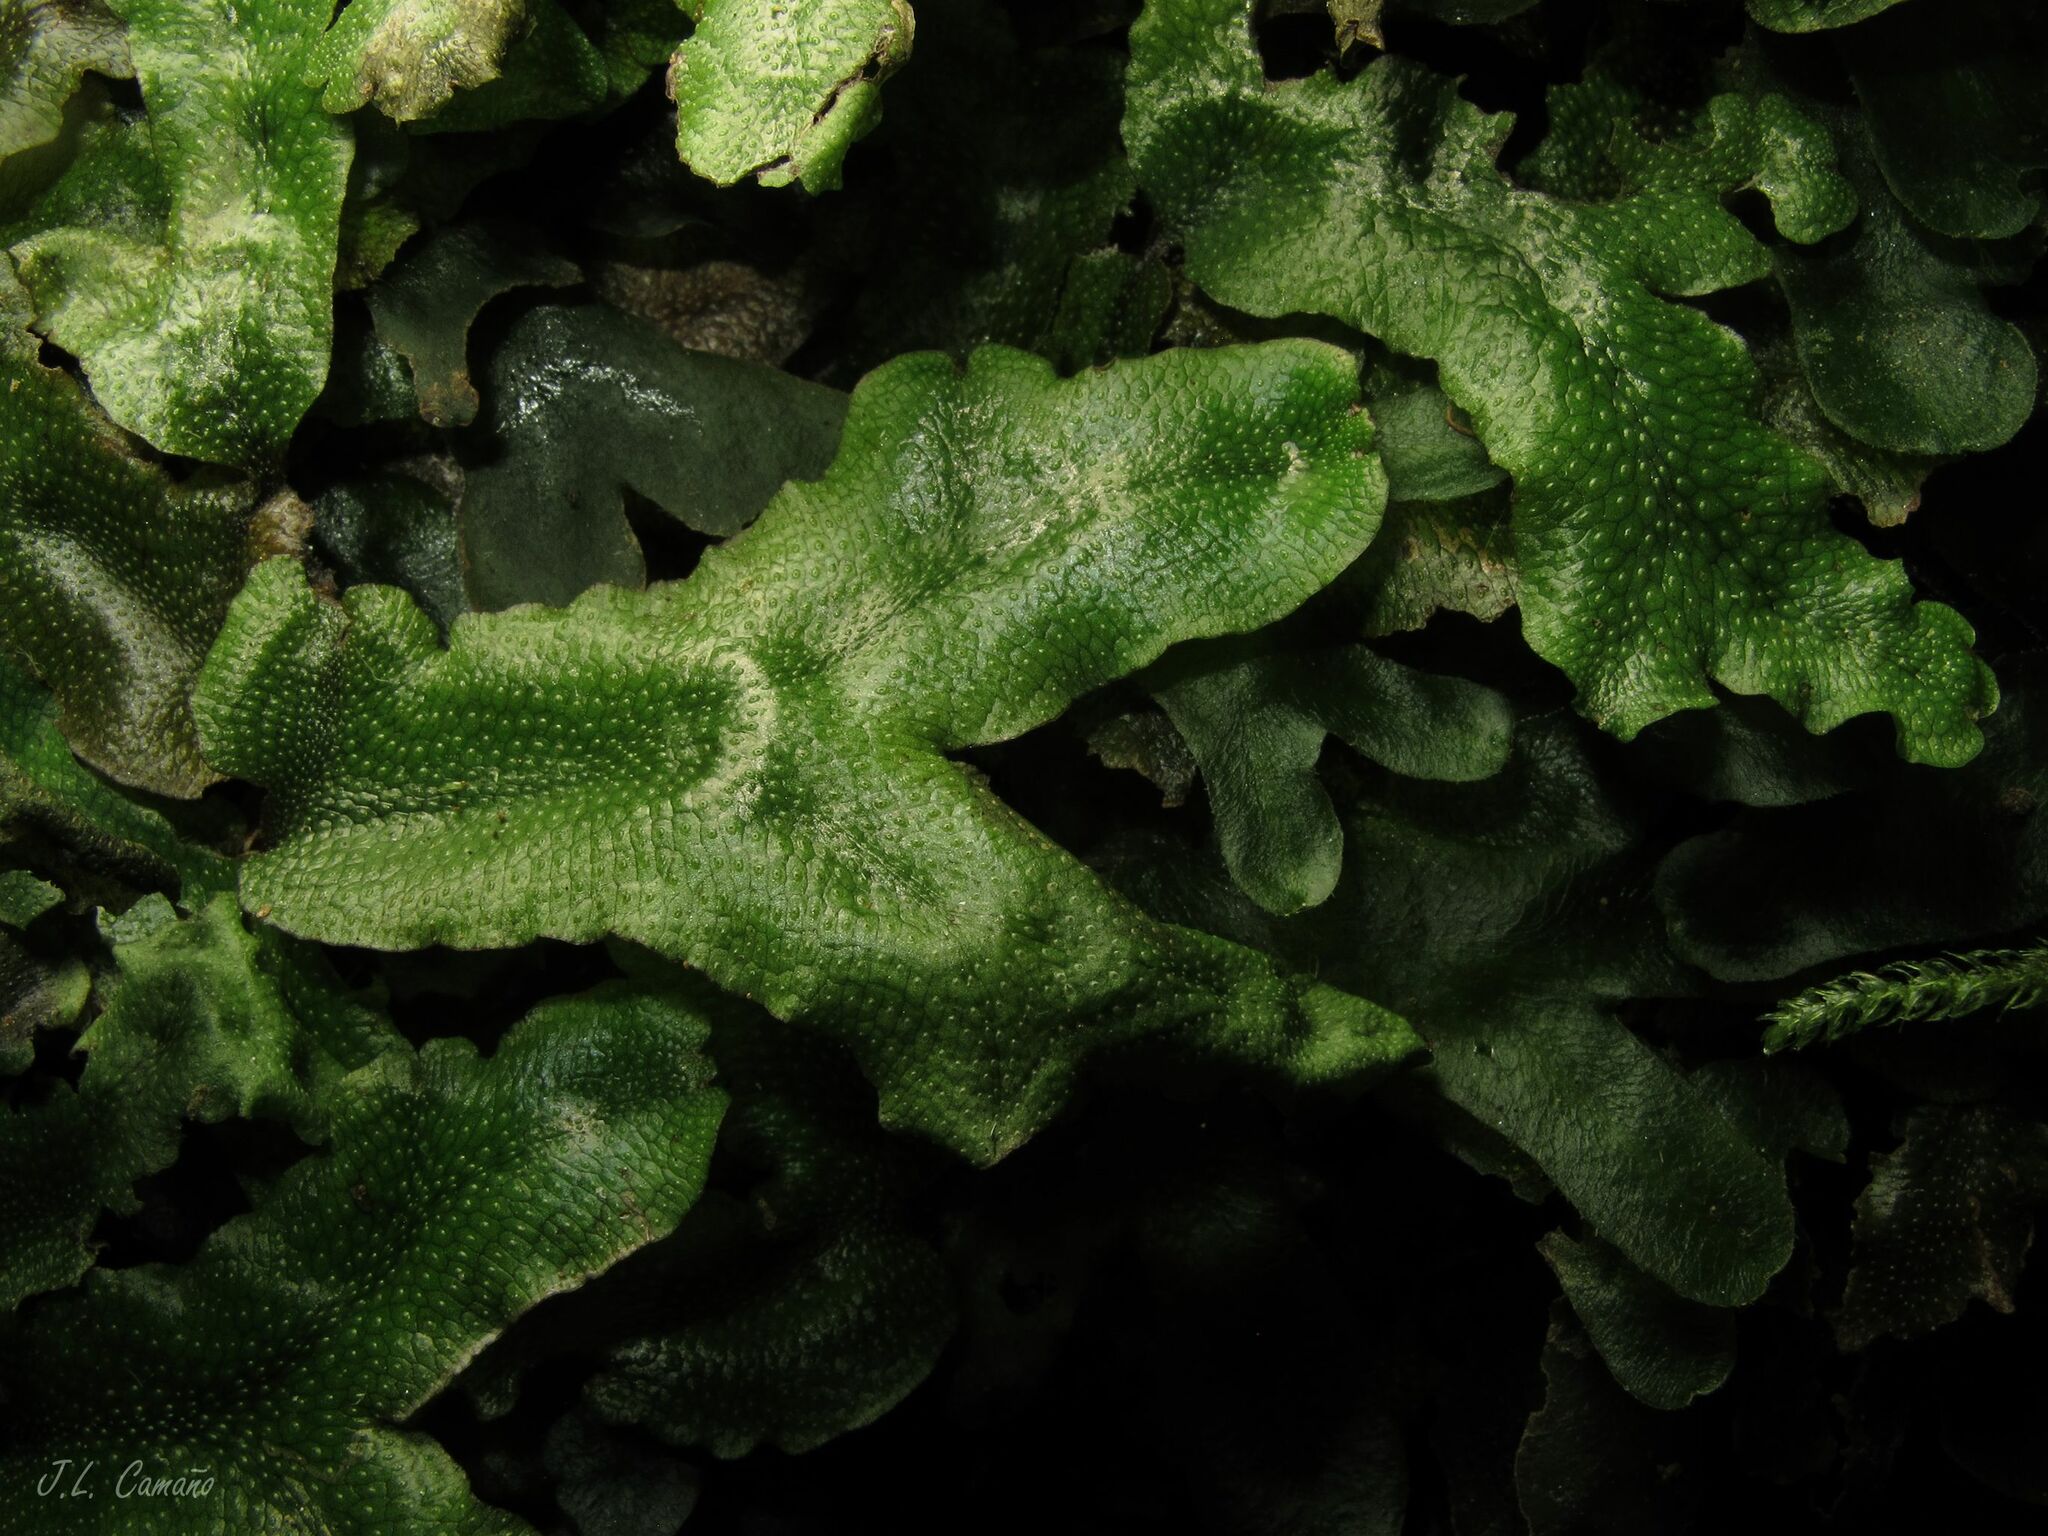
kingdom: Plantae
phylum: Marchantiophyta
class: Marchantiopsida
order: Marchantiales
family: Conocephalaceae
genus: Conocephalum
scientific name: Conocephalum conicum
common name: Great scented liverwort
